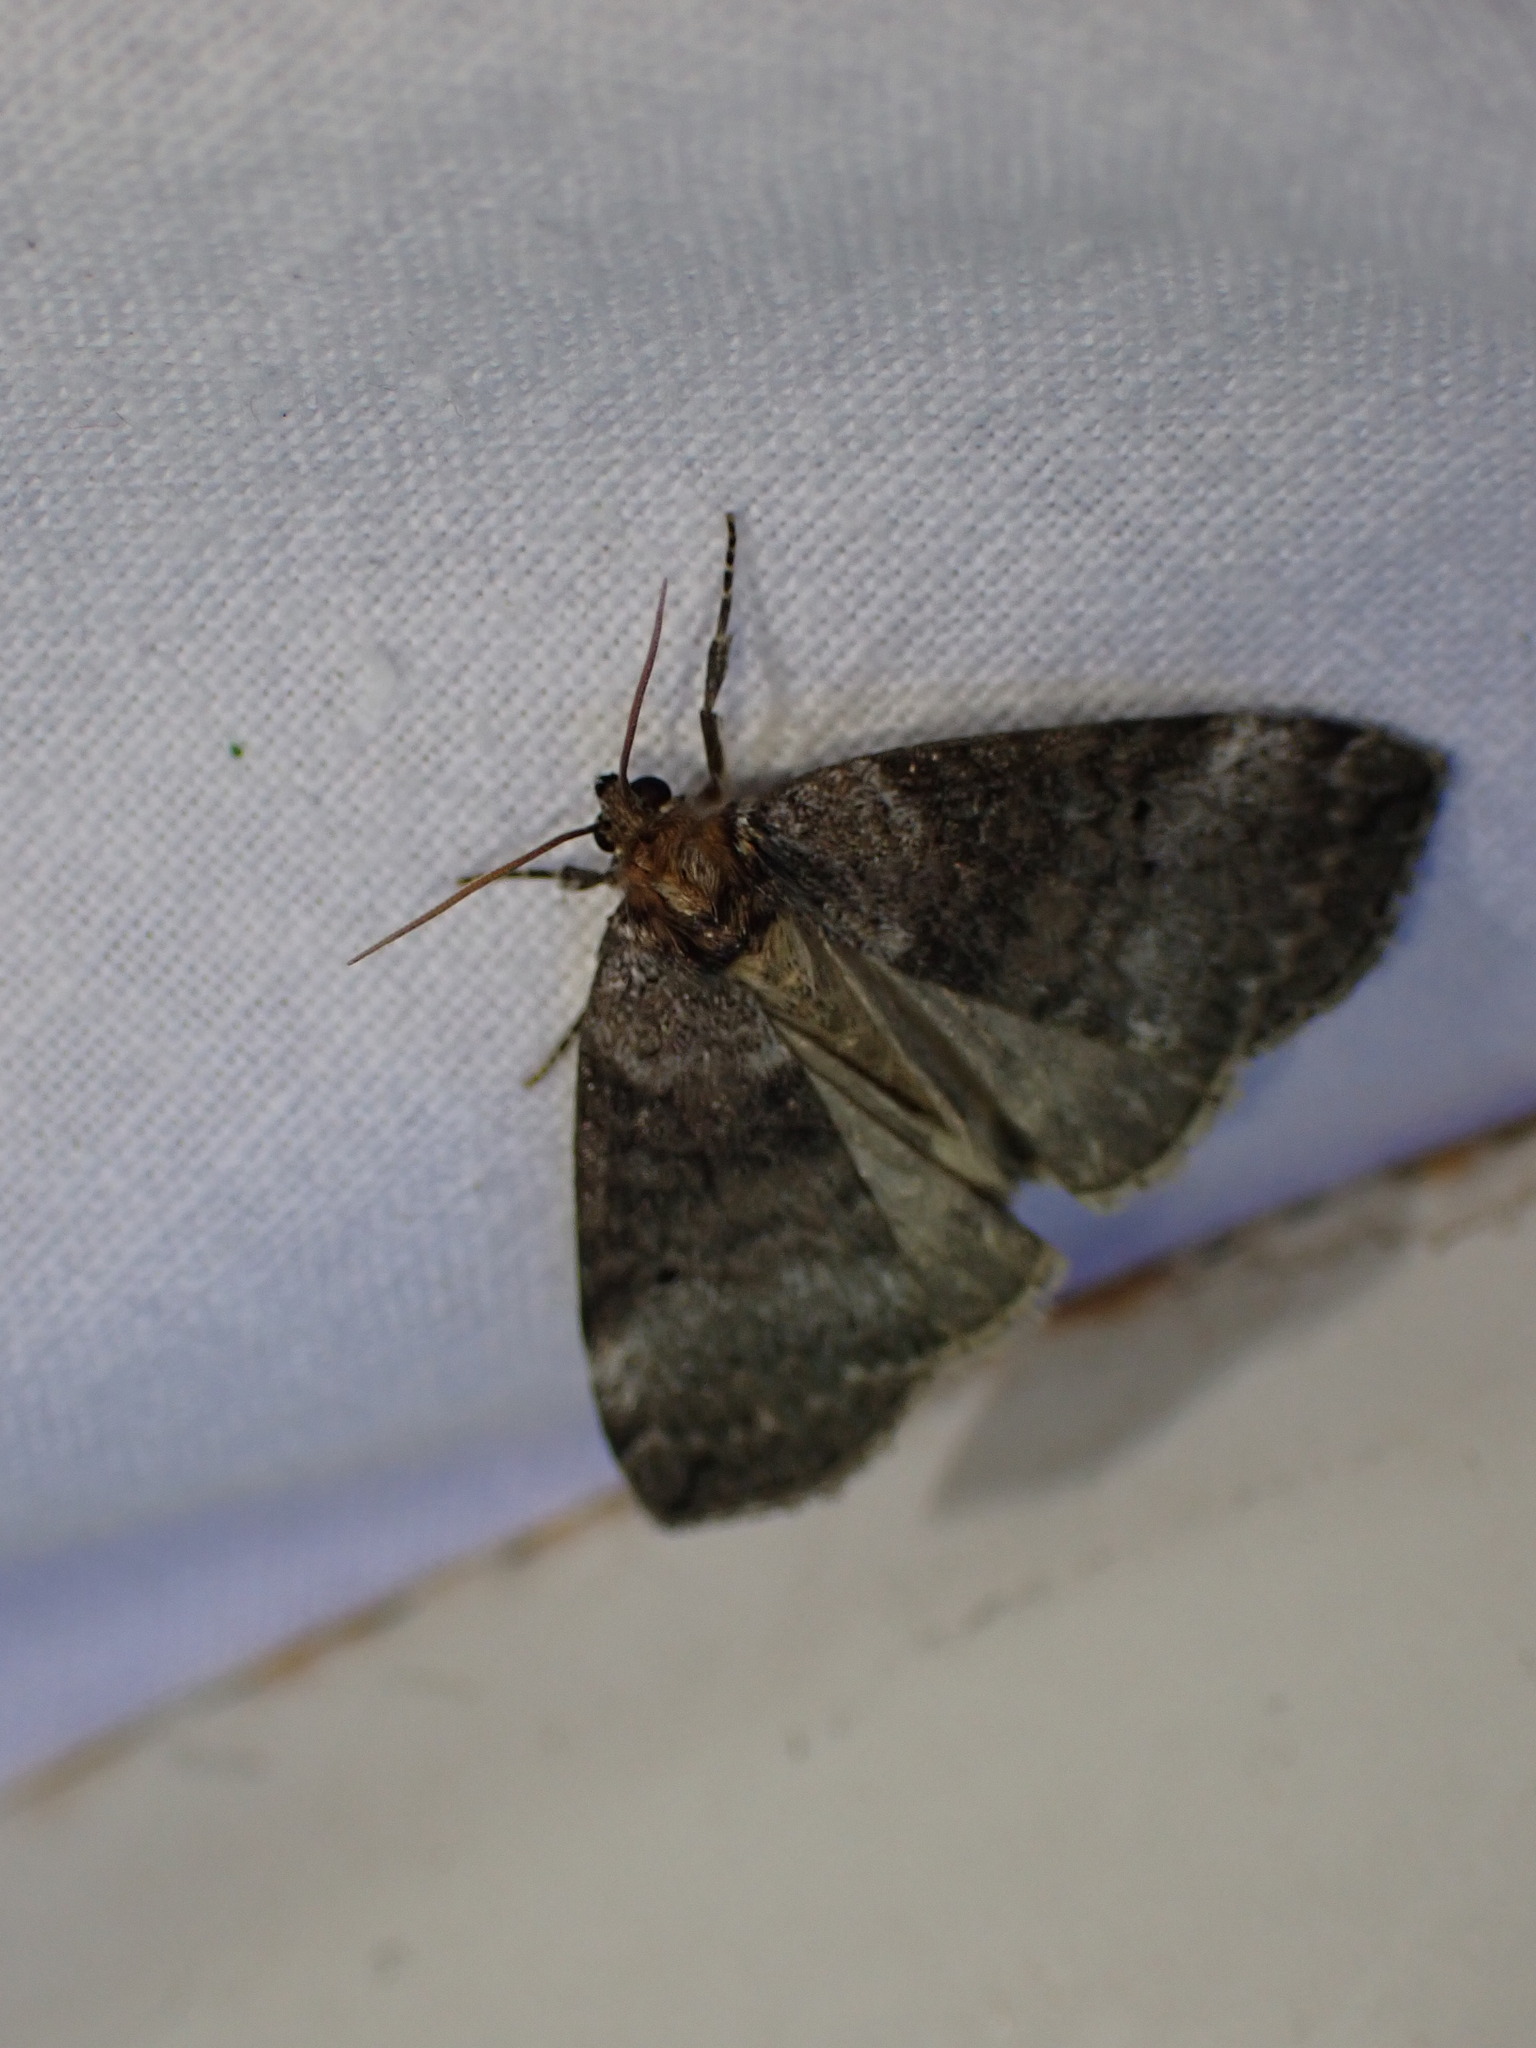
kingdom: Animalia
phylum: Arthropoda
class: Insecta
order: Lepidoptera
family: Drepanidae
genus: Ochropacha
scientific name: Ochropacha duplaris
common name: Common lutestring
